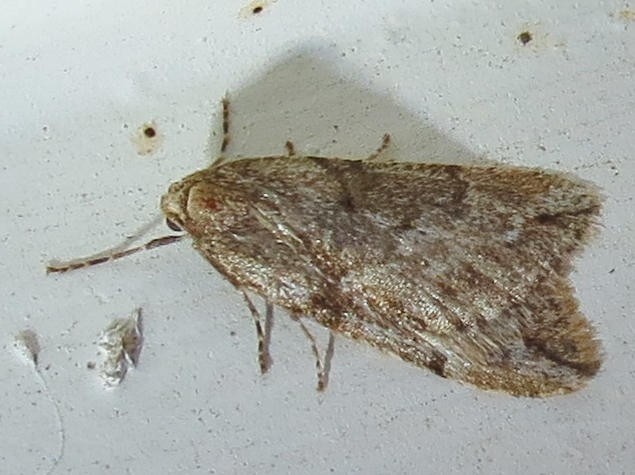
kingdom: Animalia
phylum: Arthropoda
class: Insecta
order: Lepidoptera
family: Geometridae
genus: Paleacrita
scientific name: Paleacrita vernata
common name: Spring cankerworm
